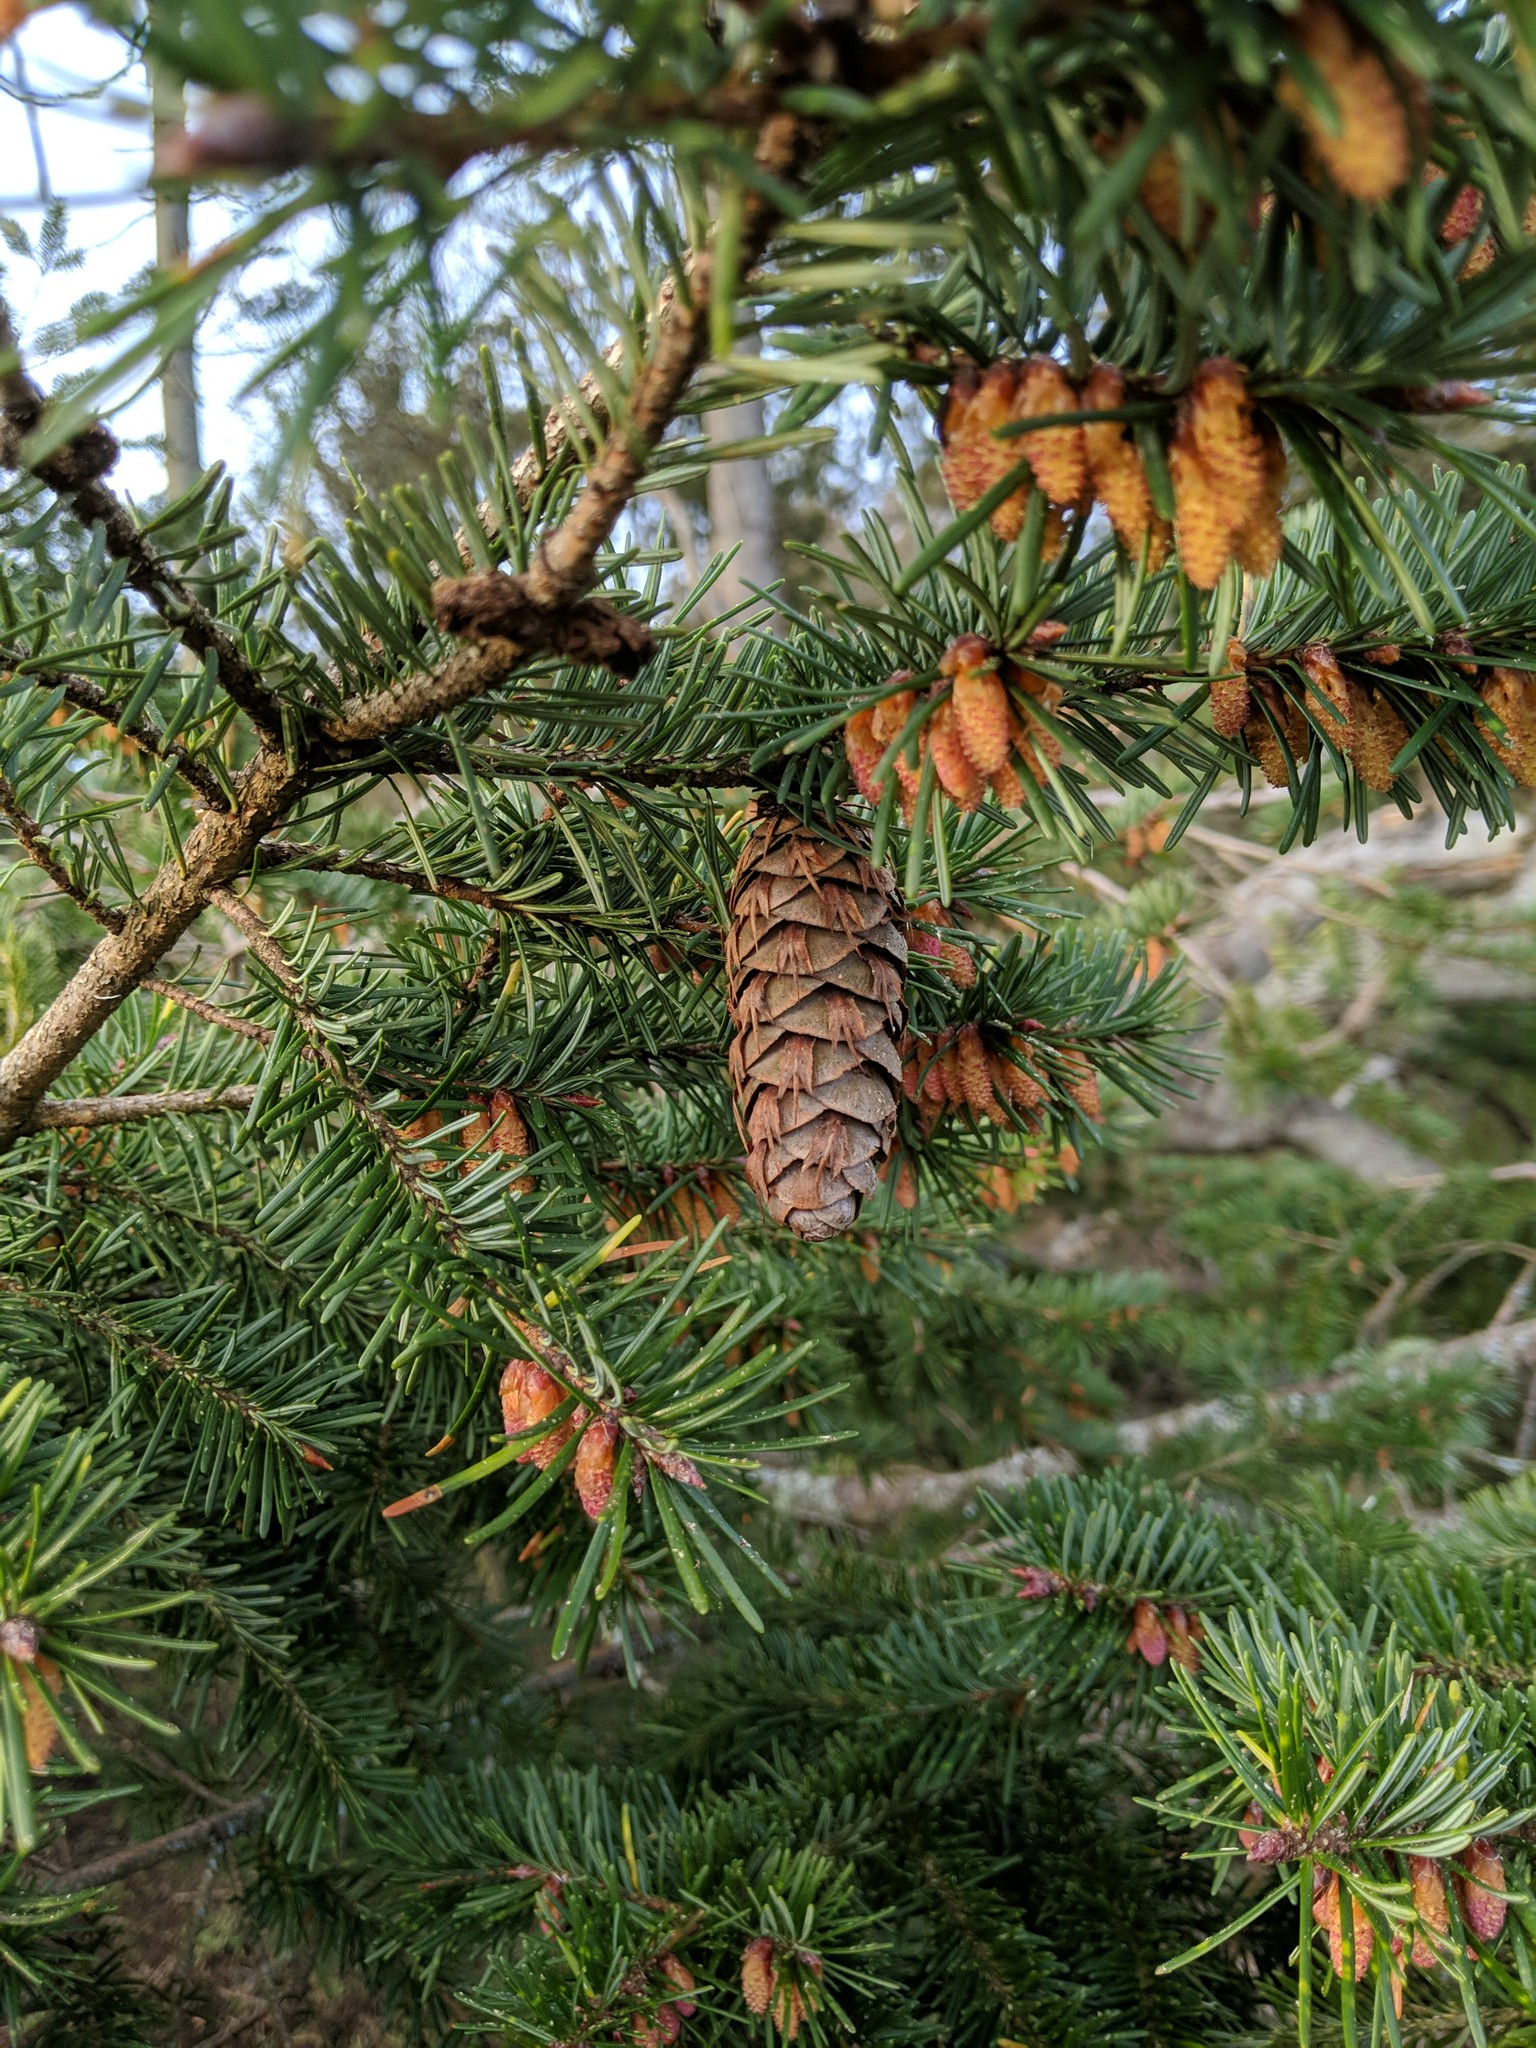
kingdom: Plantae
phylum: Tracheophyta
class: Pinopsida
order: Pinales
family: Pinaceae
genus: Pseudotsuga
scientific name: Pseudotsuga menziesii
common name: Douglas fir
